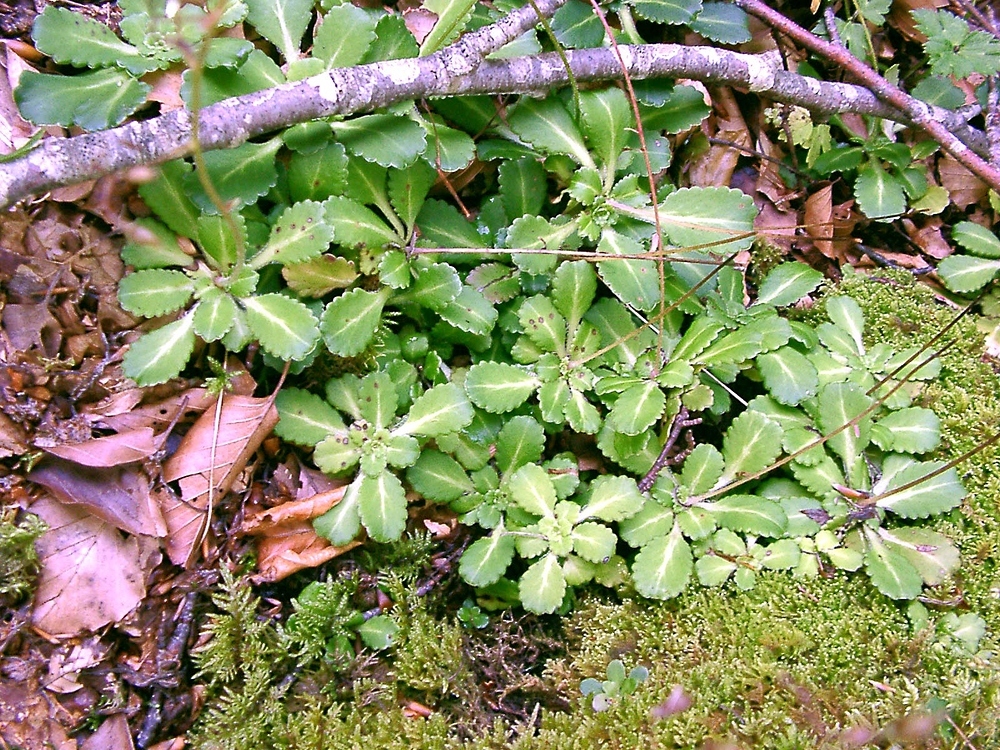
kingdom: Plantae
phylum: Tracheophyta
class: Magnoliopsida
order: Saxifragales
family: Saxifragaceae
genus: Saxifraga
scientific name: Saxifraga umbrosa
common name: Pyrenean saxifrage
